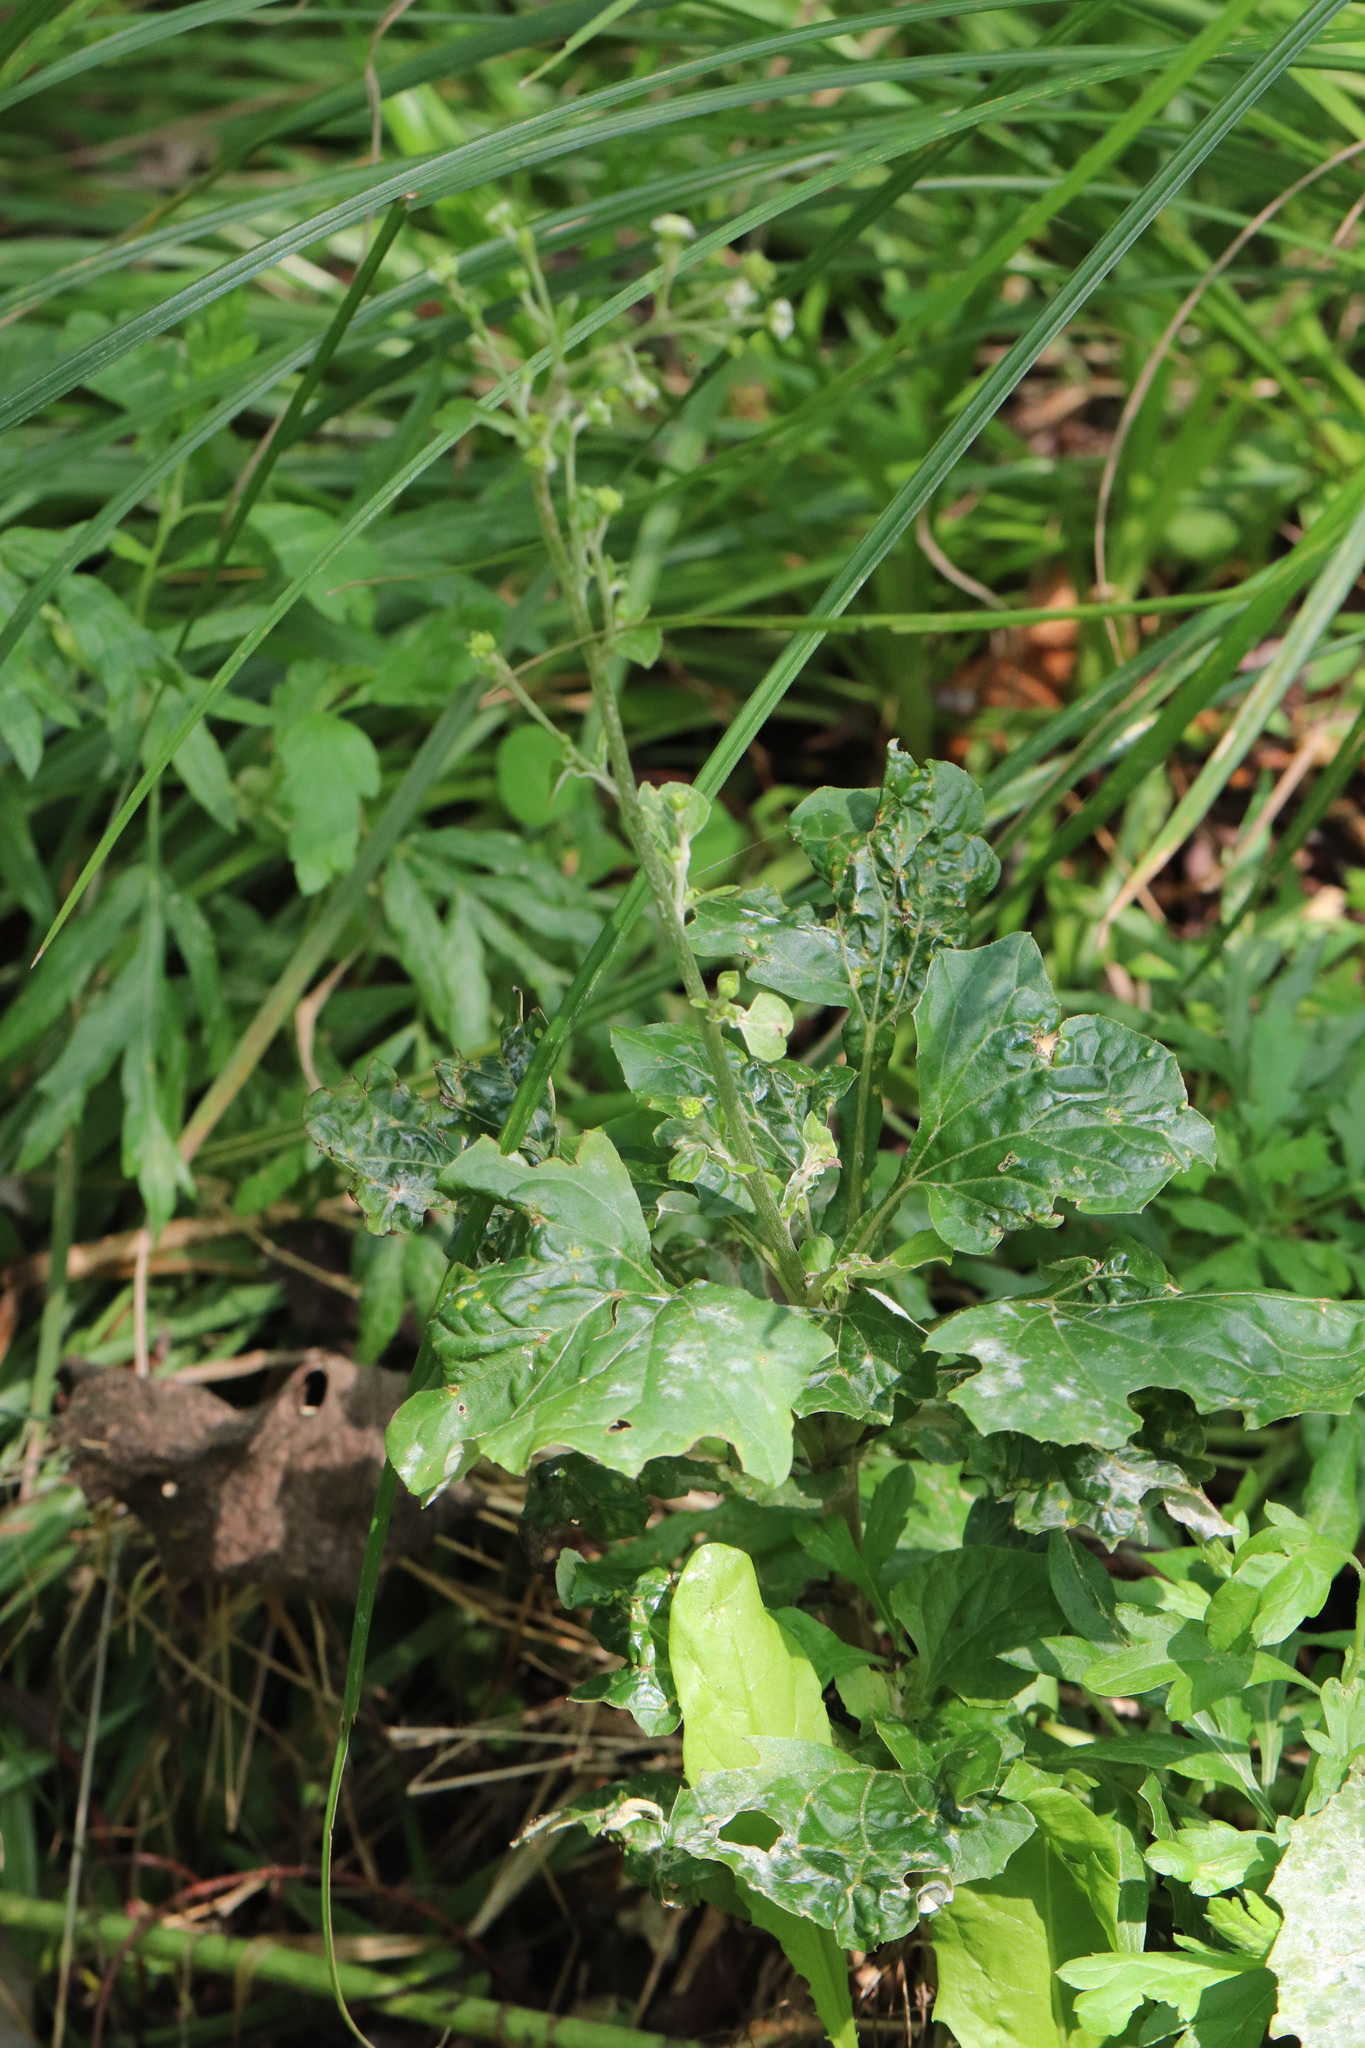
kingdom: Plantae
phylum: Tracheophyta
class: Magnoliopsida
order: Asterales
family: Asteraceae
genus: Adenocaulon
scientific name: Adenocaulon himalaicum
